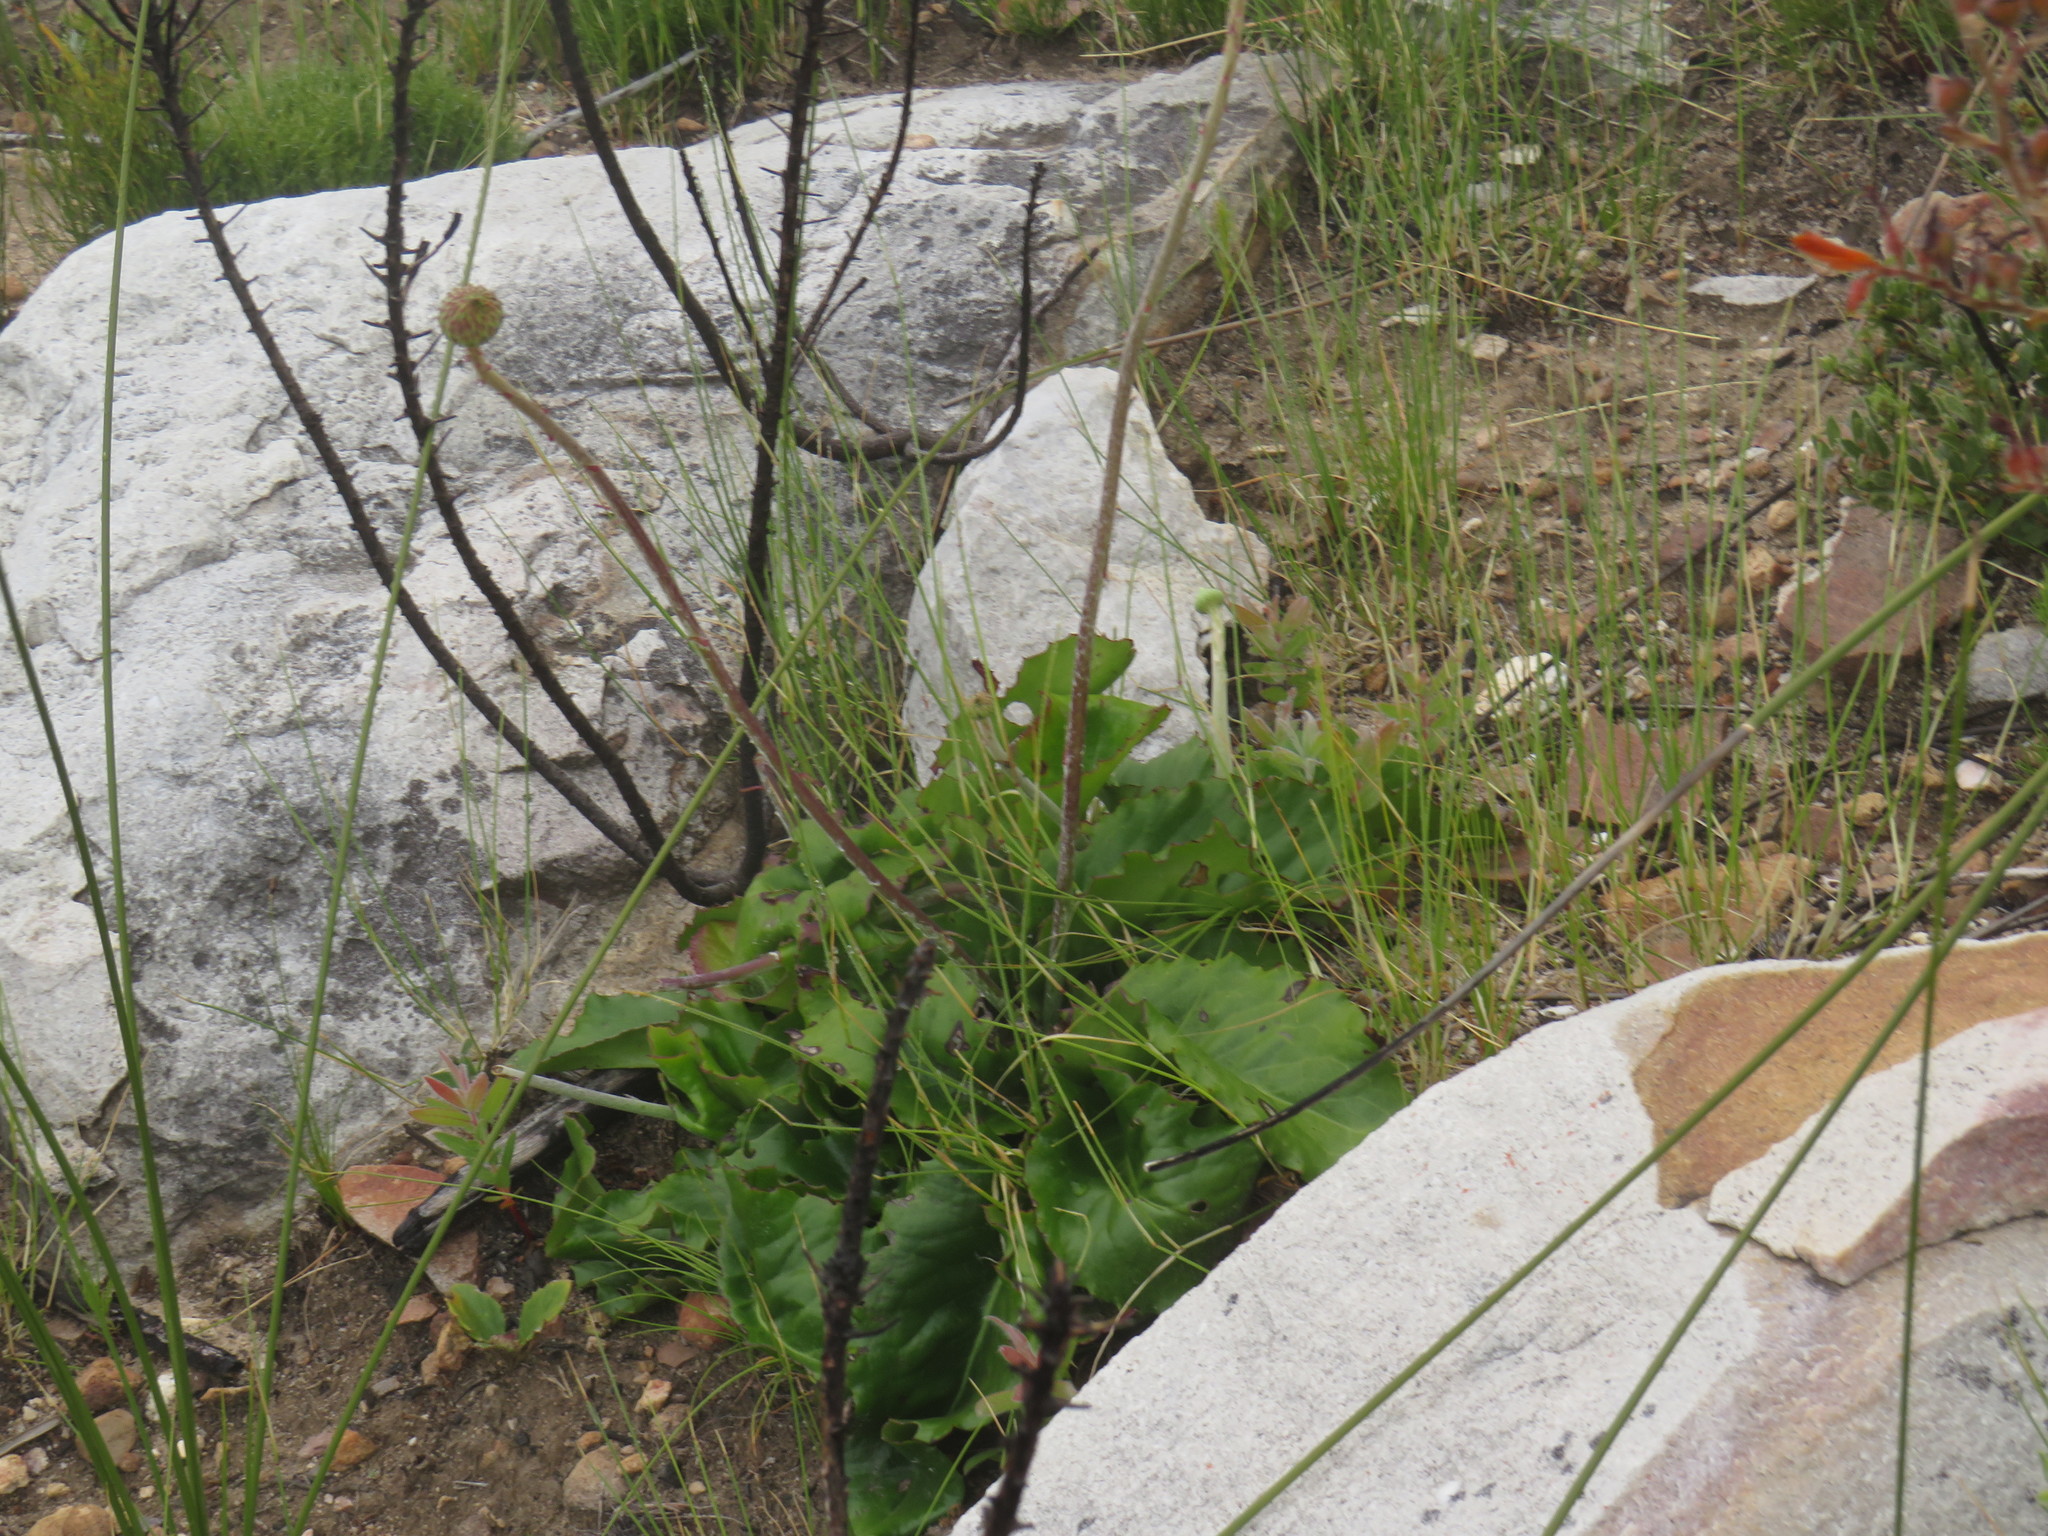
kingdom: Plantae
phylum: Tracheophyta
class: Magnoliopsida
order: Asterales
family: Asteraceae
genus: Gerbera
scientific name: Gerbera crocea
